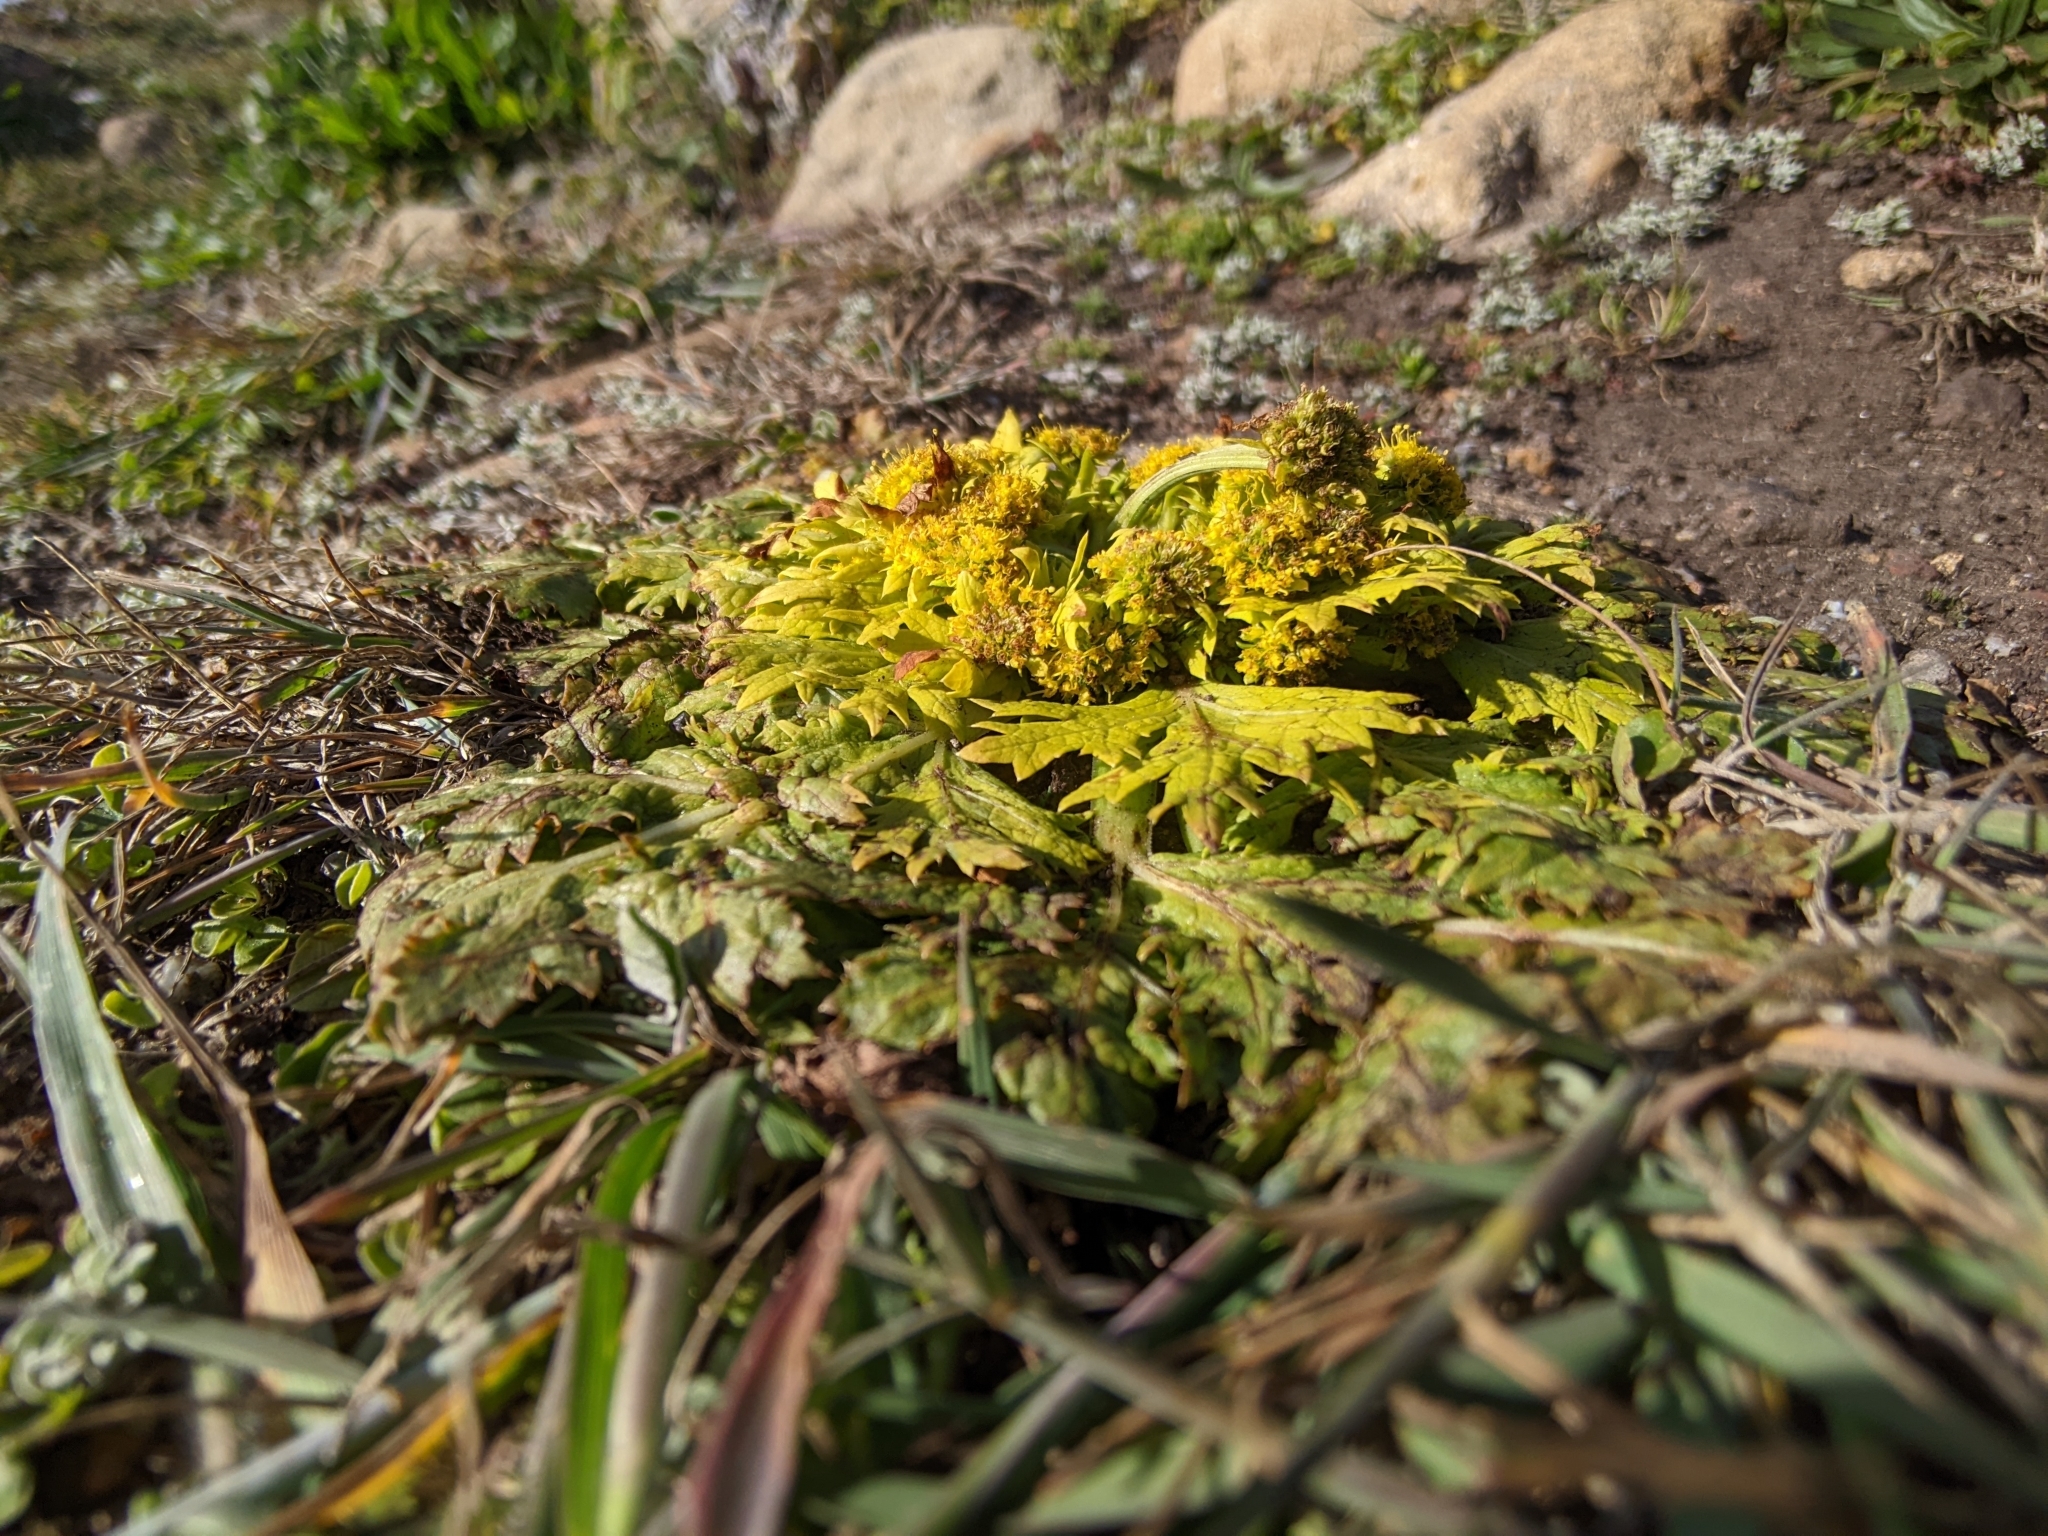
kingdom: Plantae
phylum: Tracheophyta
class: Magnoliopsida
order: Apiales
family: Apiaceae
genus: Sanicula
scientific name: Sanicula arctopoides
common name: Footsteps-of-spring
